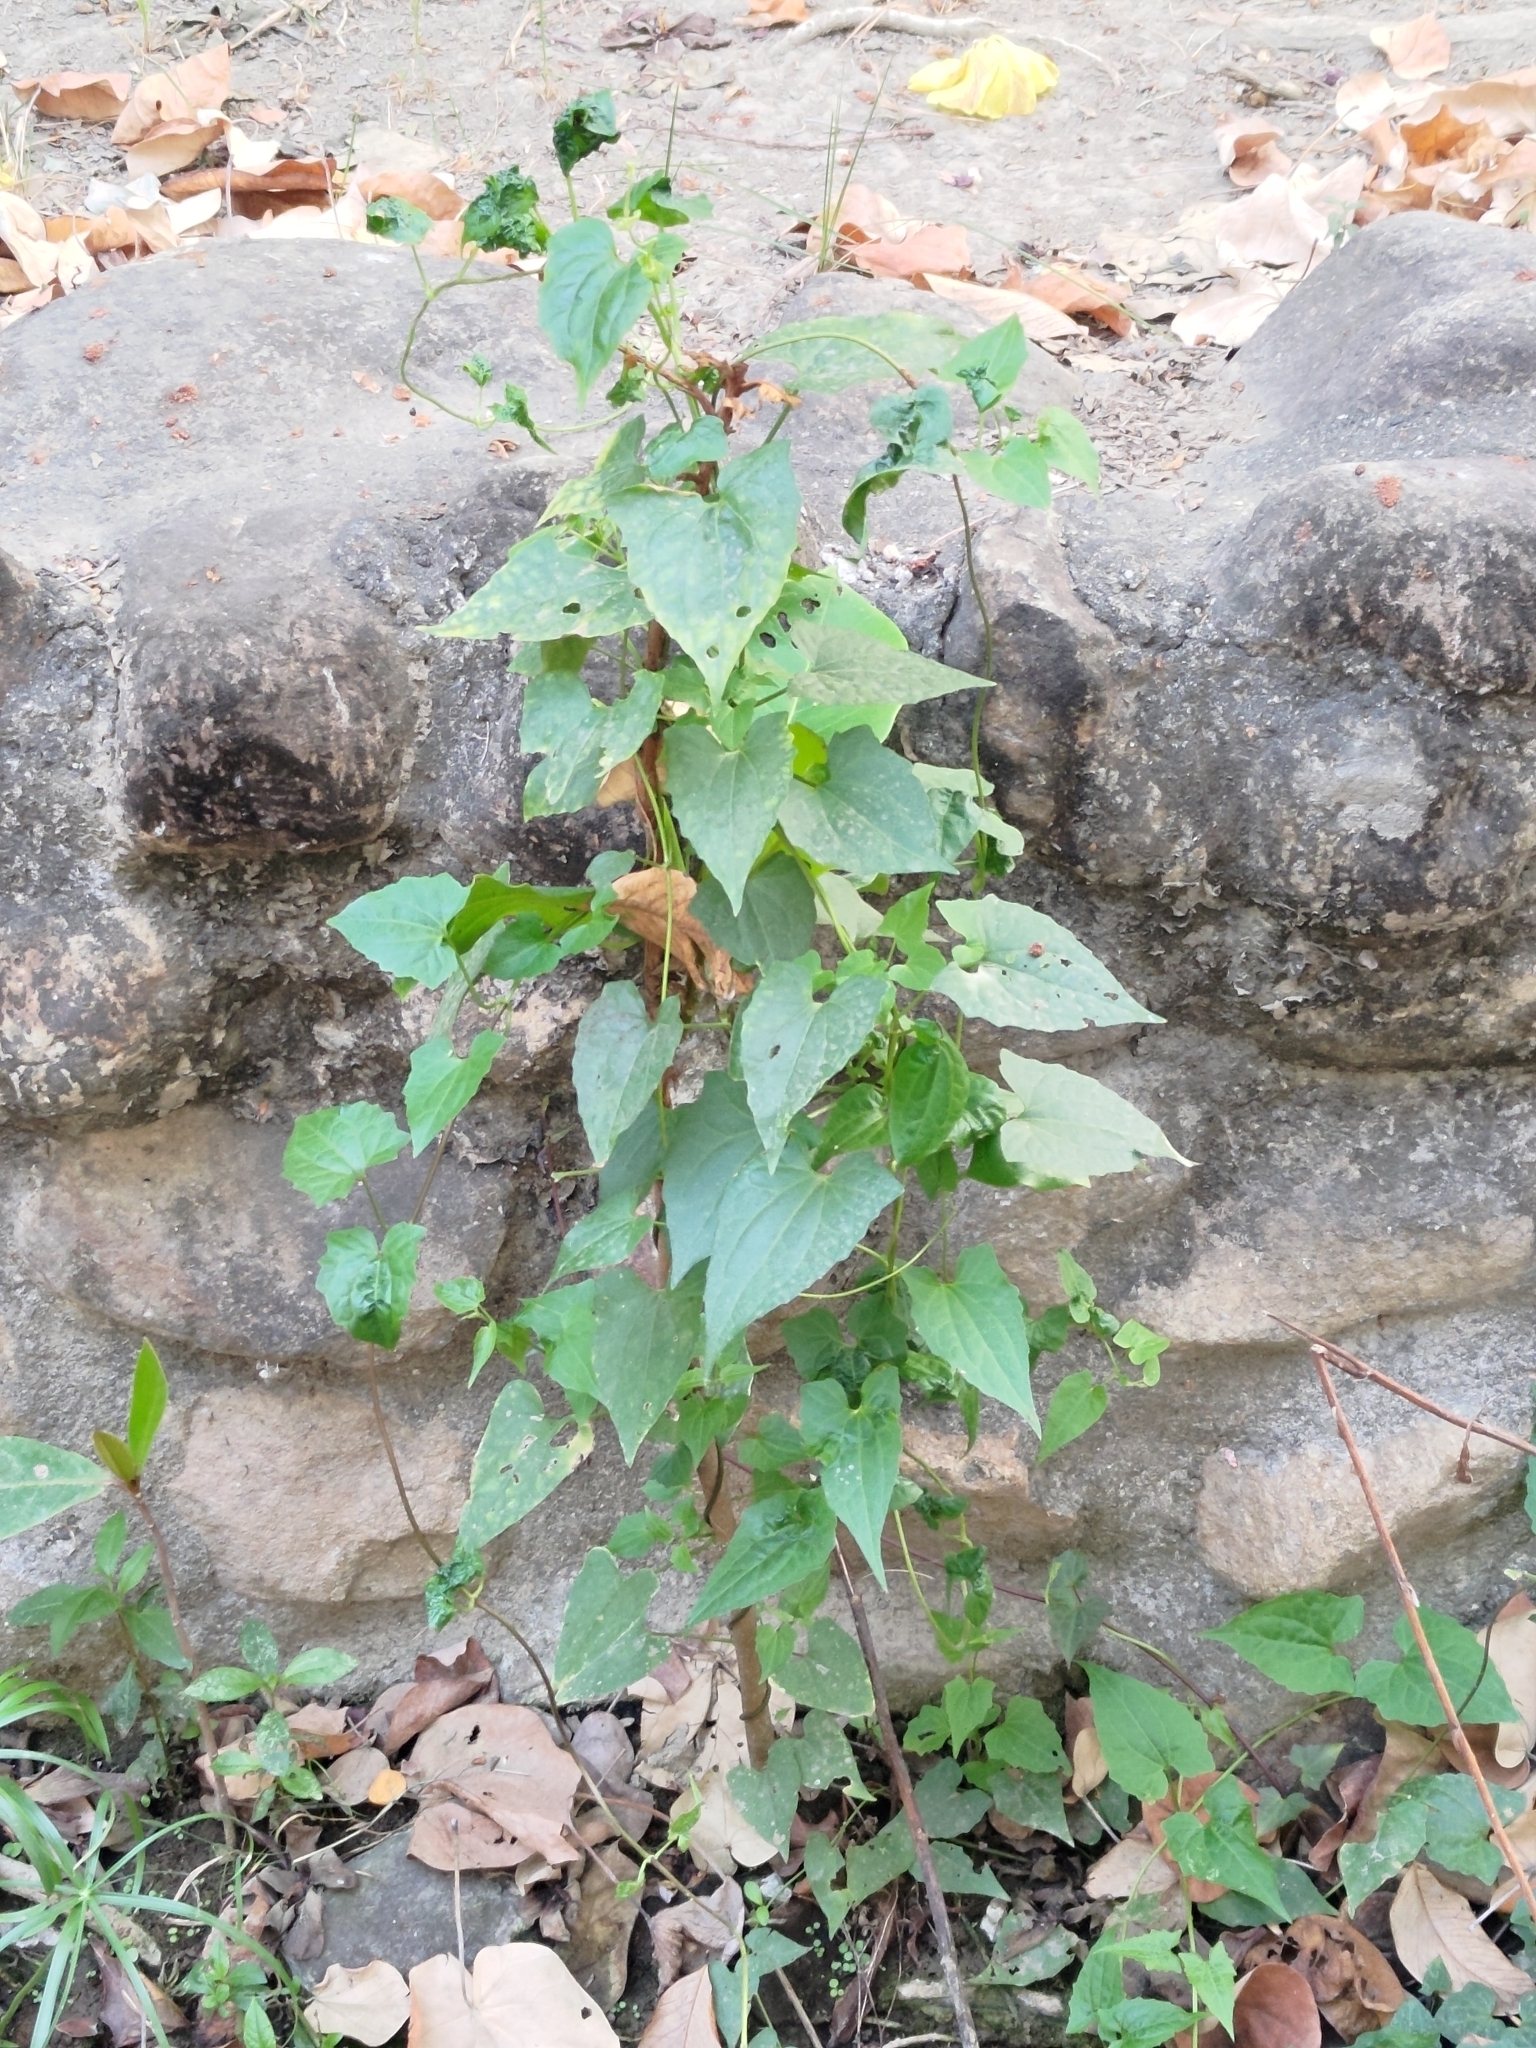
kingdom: Plantae
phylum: Tracheophyta
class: Magnoliopsida
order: Asterales
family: Asteraceae
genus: Mikania
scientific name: Mikania micrantha
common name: Mile-a-minute
